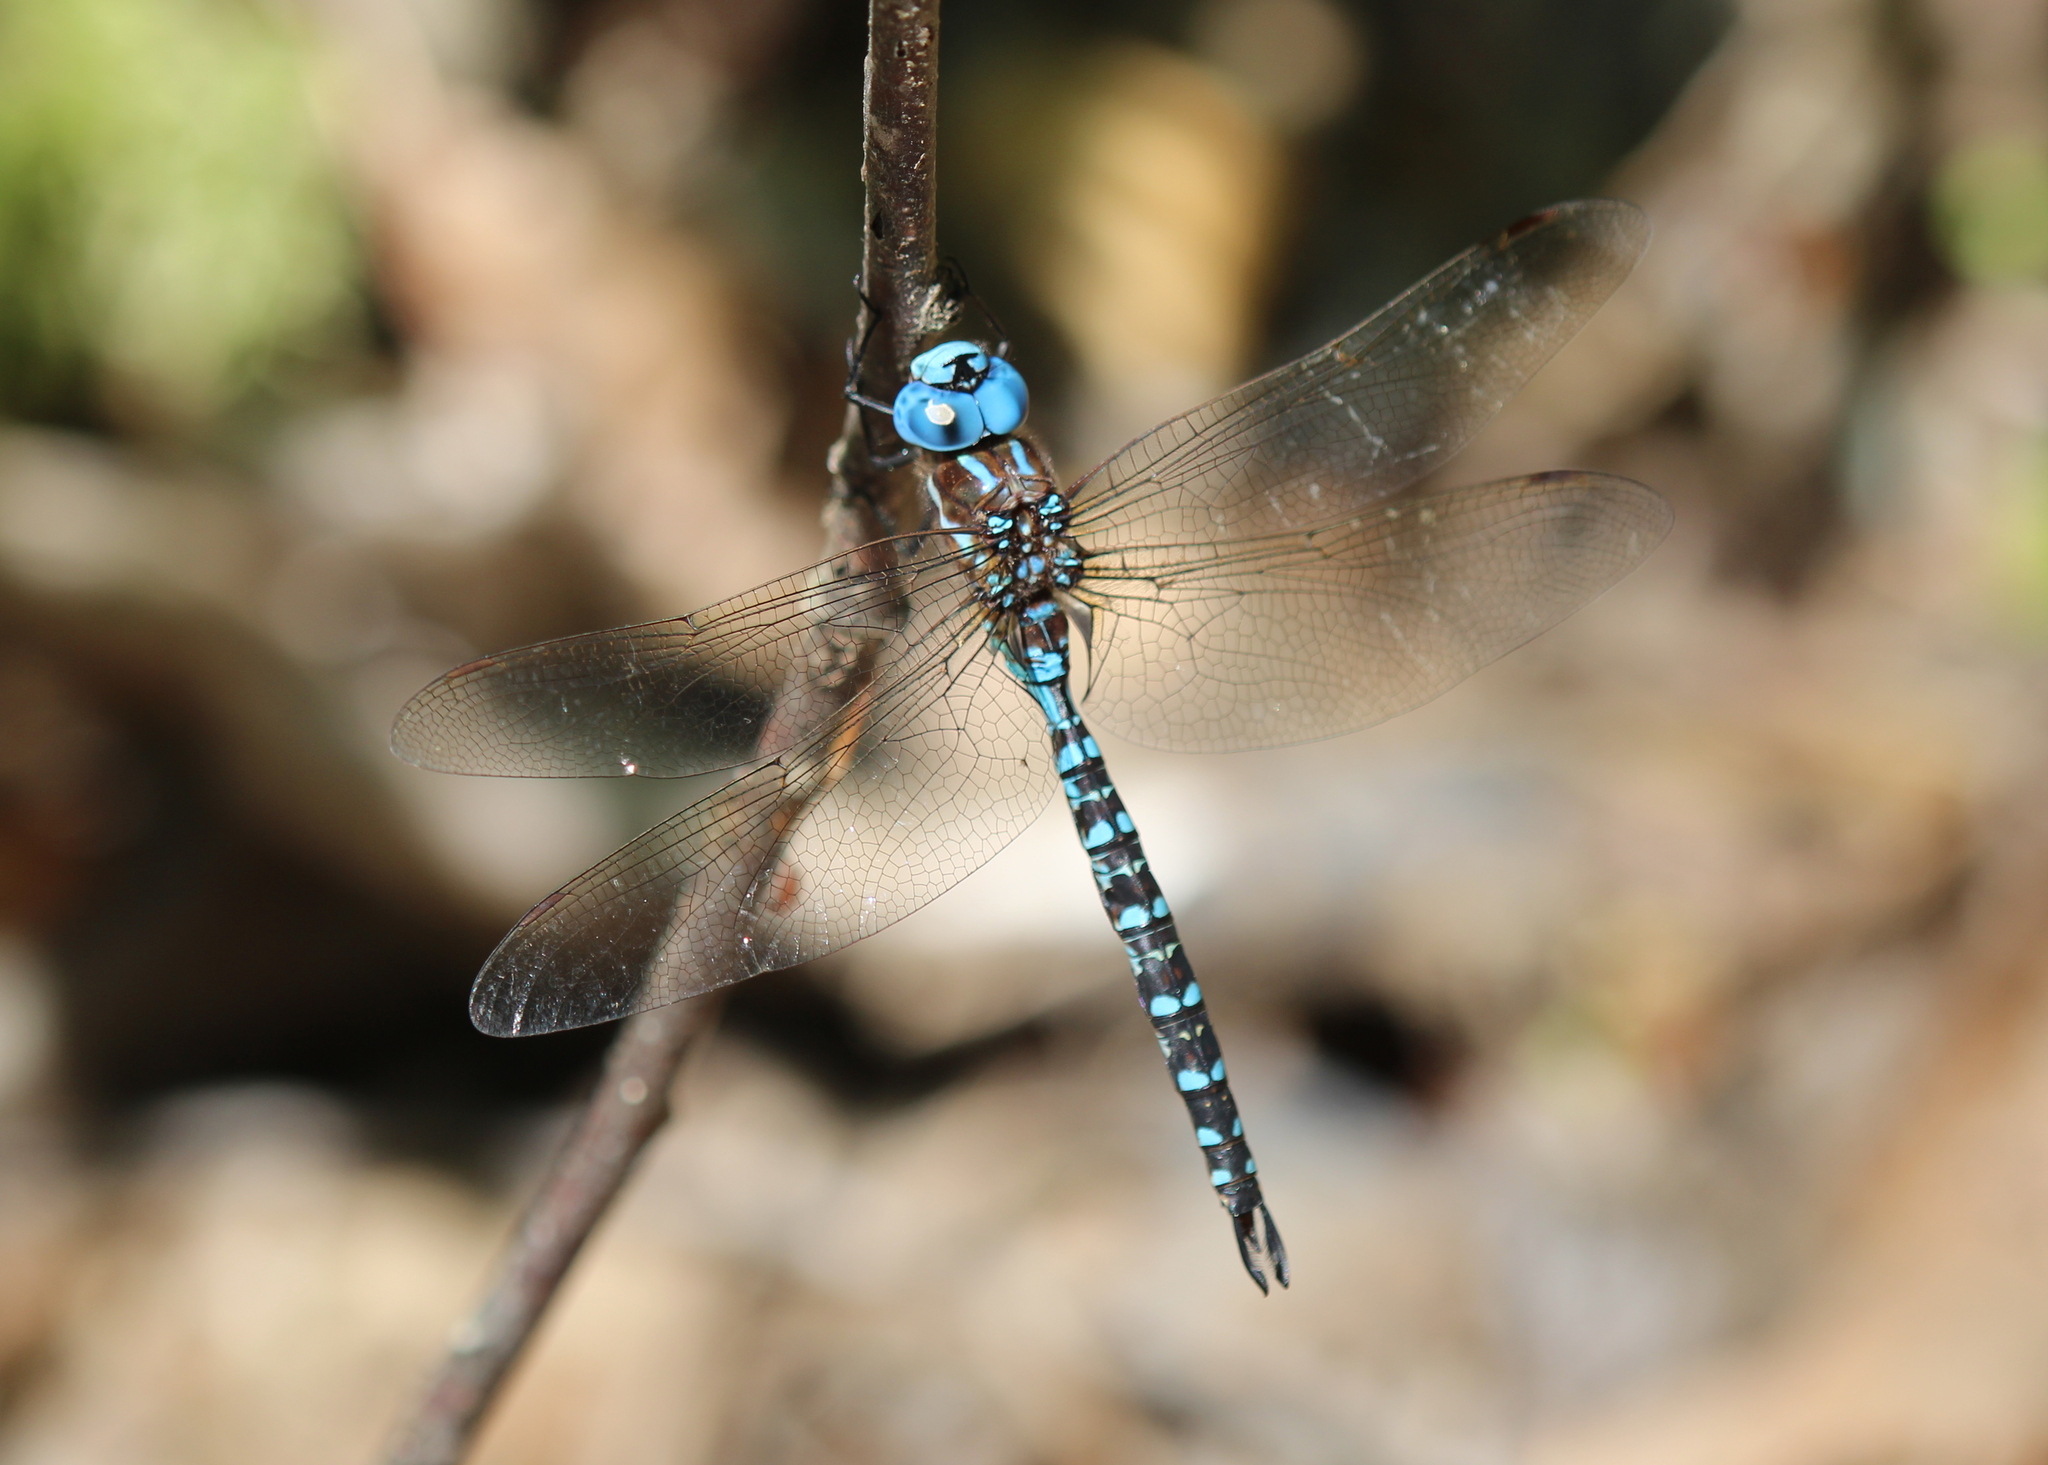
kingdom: Animalia
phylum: Arthropoda
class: Insecta
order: Odonata
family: Aeshnidae
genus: Rhionaeschna
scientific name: Rhionaeschna mutata
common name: Spatterdock darner
